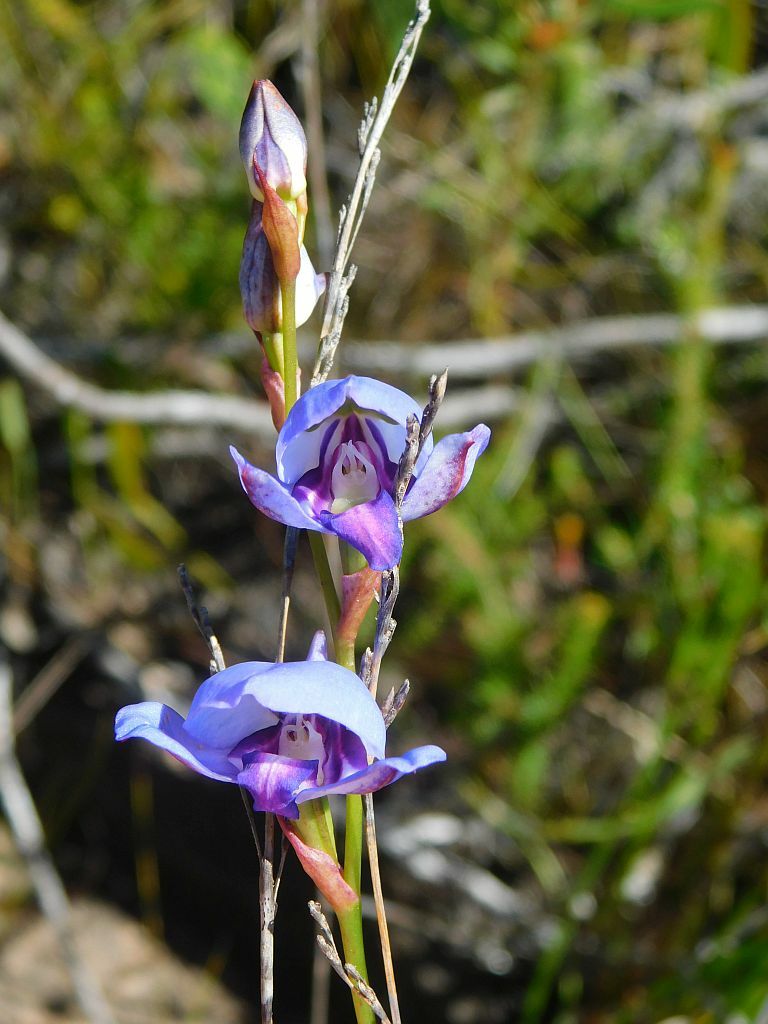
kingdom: Plantae
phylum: Tracheophyta
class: Liliopsida
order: Asparagales
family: Orchidaceae
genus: Disa
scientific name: Disa graminifolia
